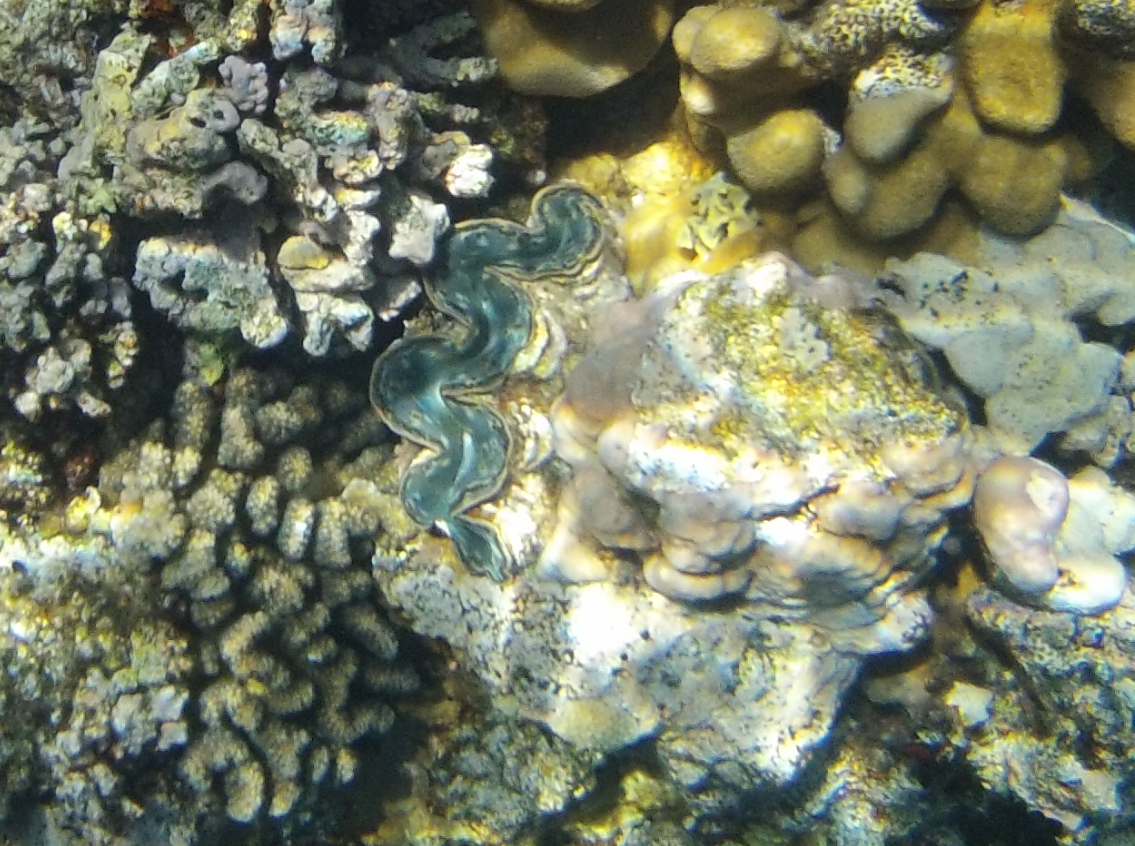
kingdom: Animalia
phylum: Mollusca
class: Bivalvia
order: Cardiida
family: Cardiidae
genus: Tridacna
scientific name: Tridacna maxima
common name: Small giant clam
